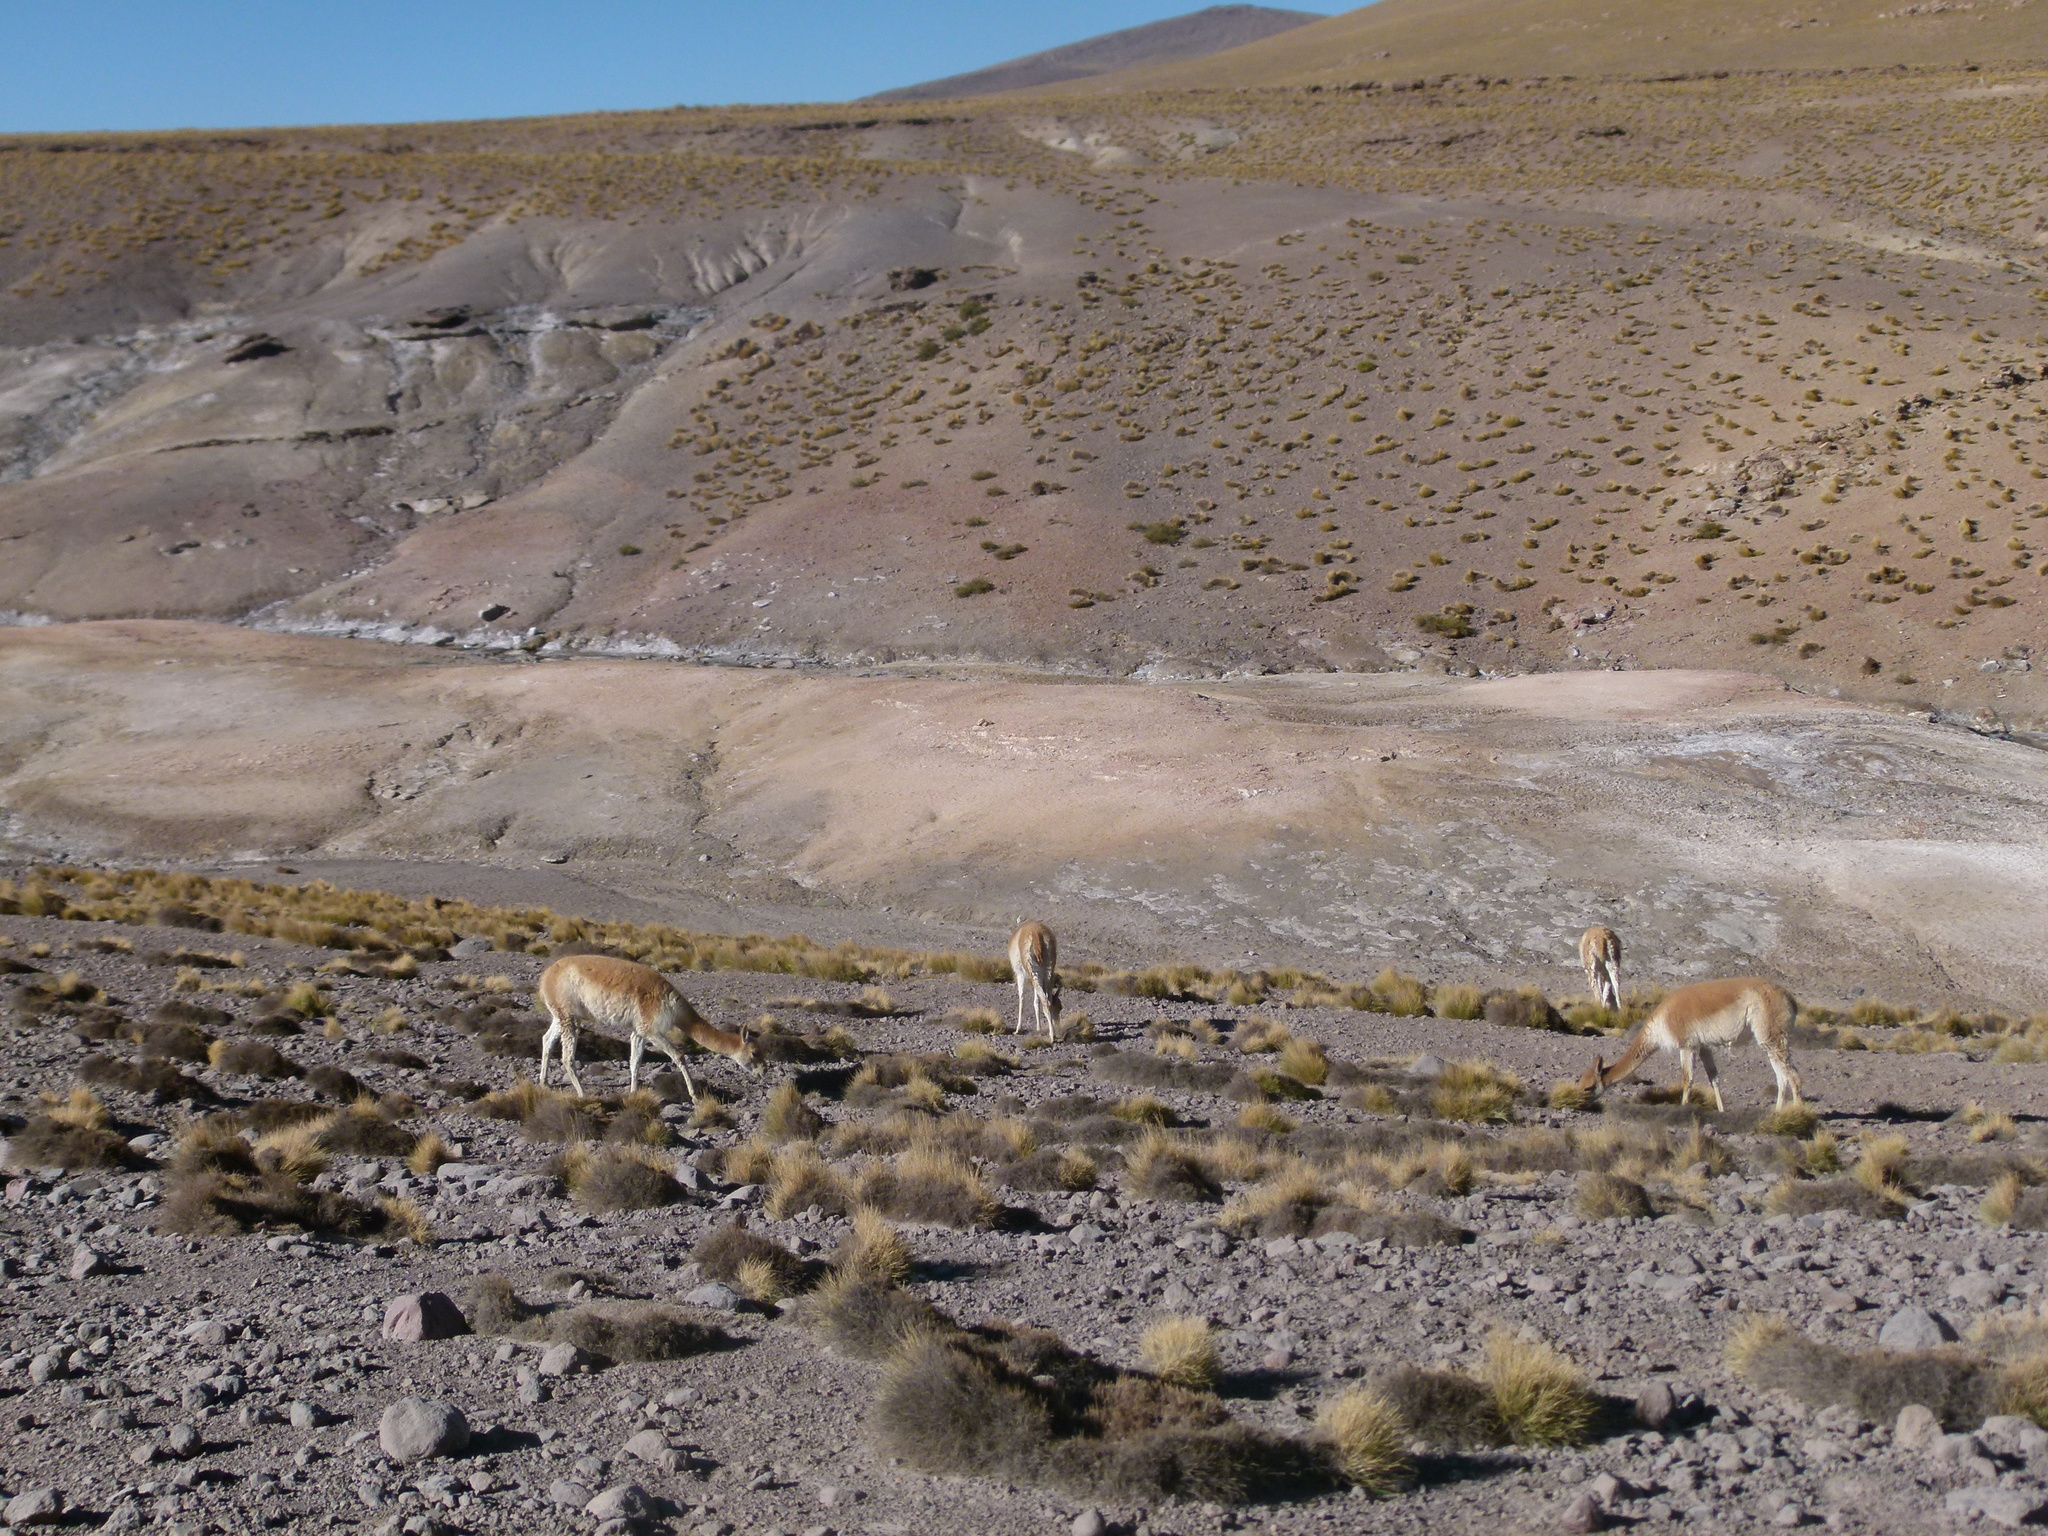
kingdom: Animalia
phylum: Chordata
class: Mammalia
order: Artiodactyla
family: Camelidae
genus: Vicugna
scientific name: Vicugna vicugna
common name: Vicugna
